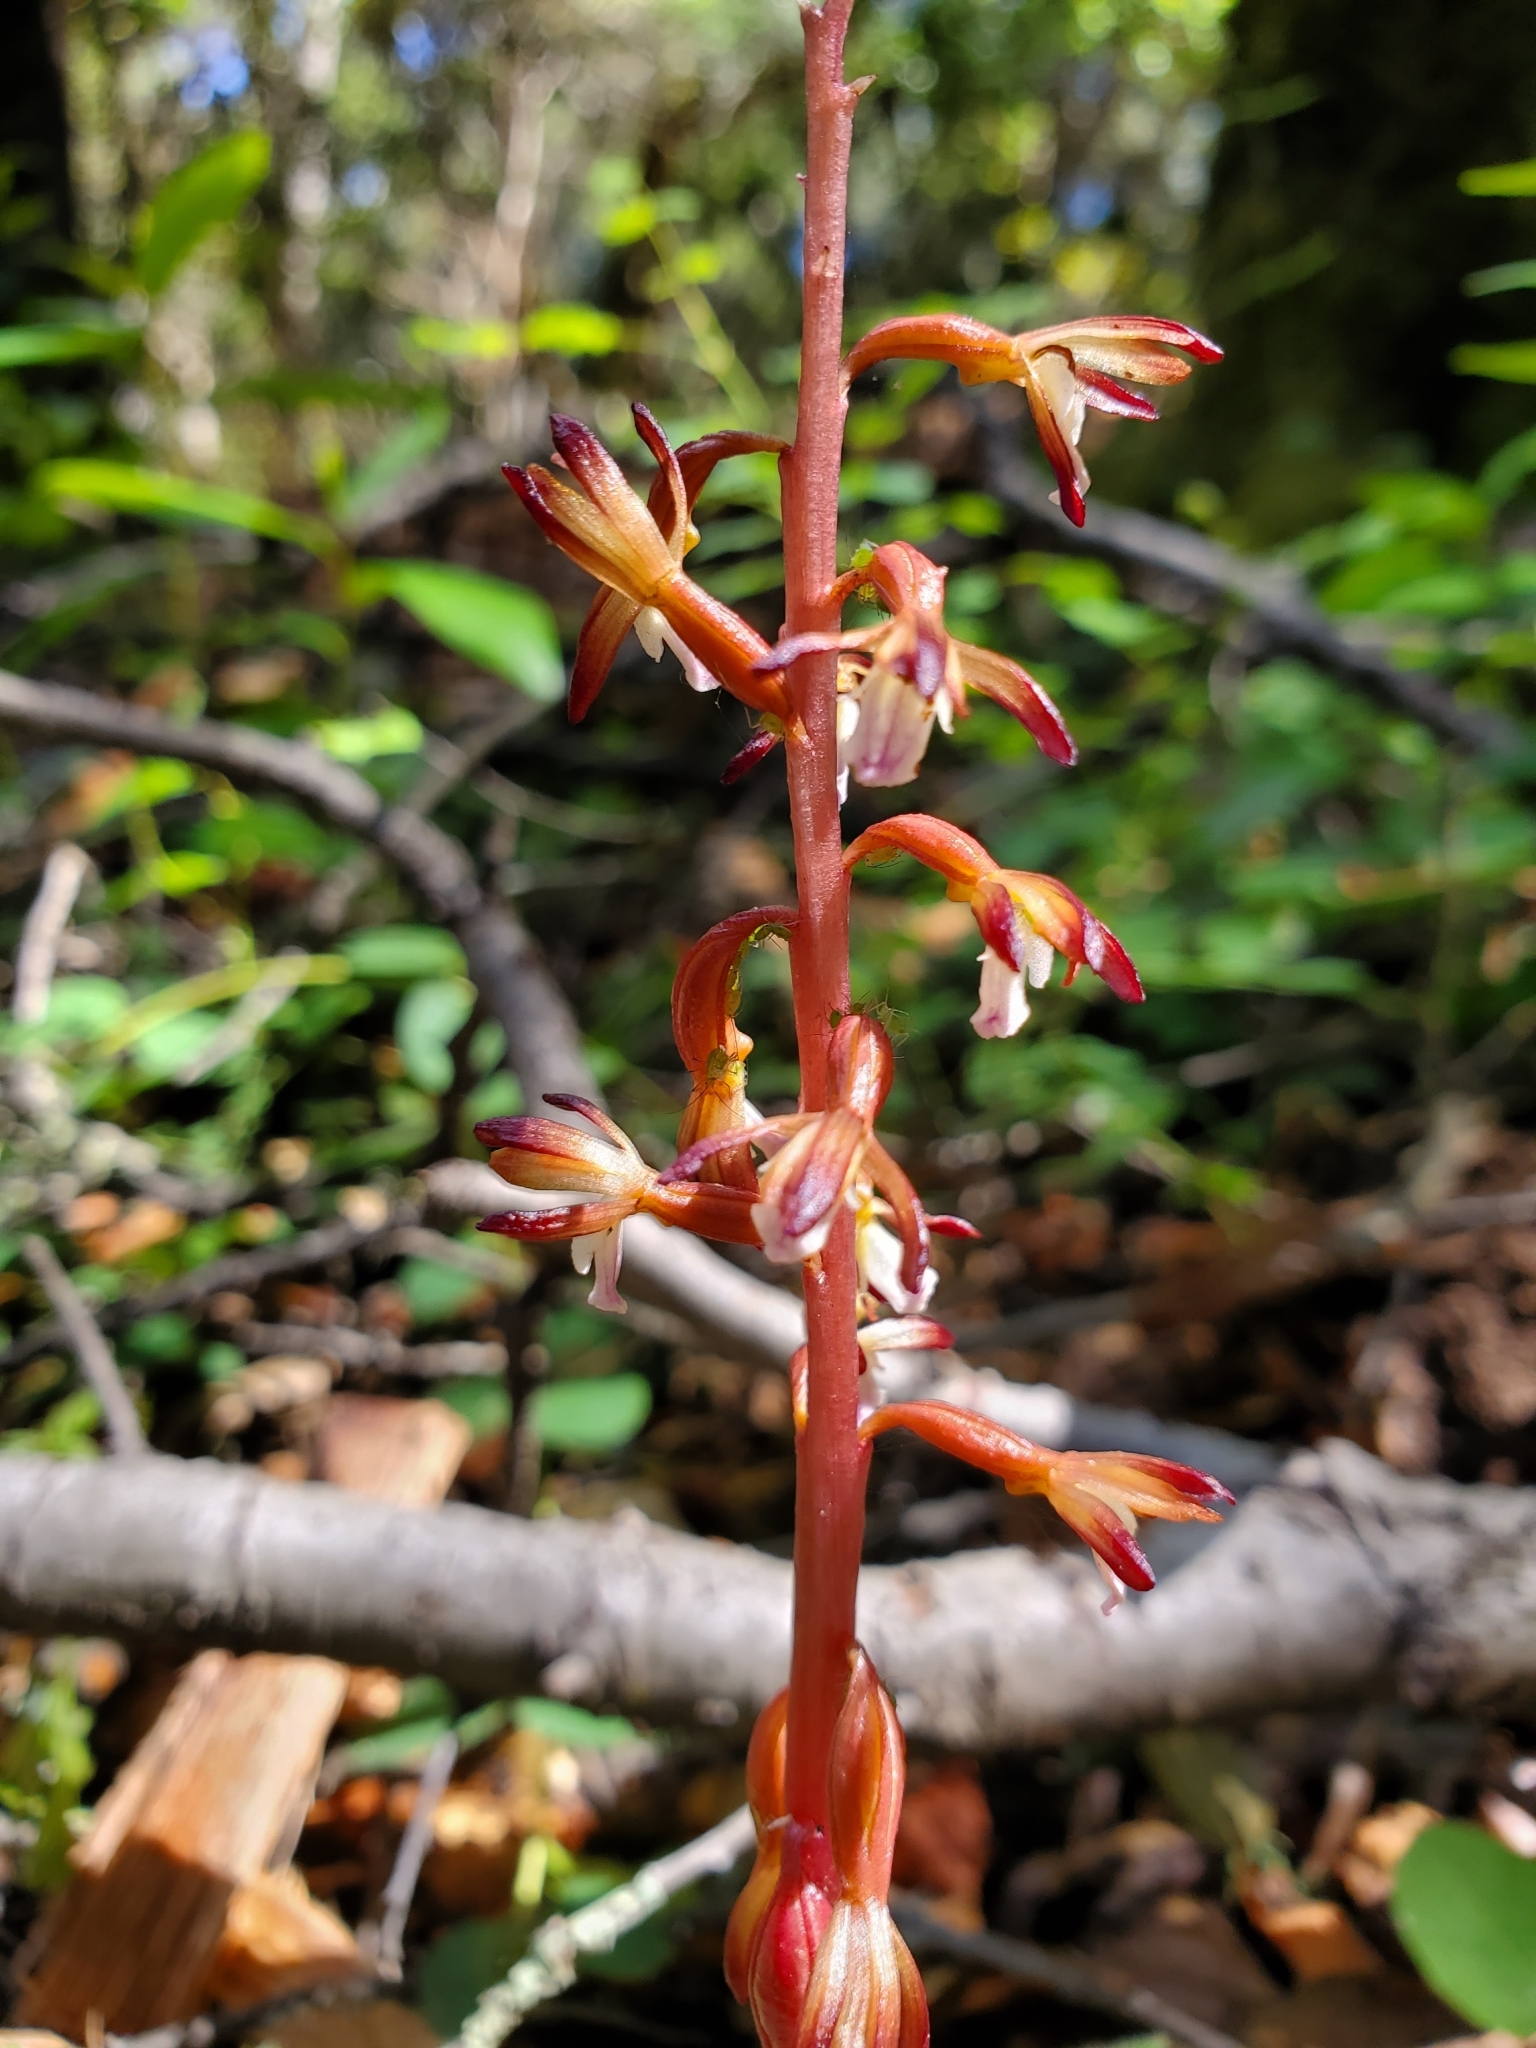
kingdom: Plantae
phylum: Tracheophyta
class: Liliopsida
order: Asparagales
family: Orchidaceae
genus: Corallorhiza
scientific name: Corallorhiza maculata
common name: Spotted coralroot
